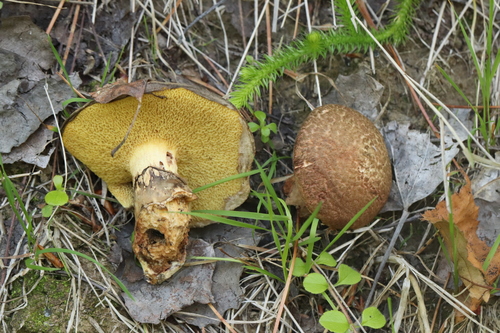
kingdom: Fungi
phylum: Basidiomycota
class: Agaricomycetes
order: Boletales
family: Suillaceae
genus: Suillus
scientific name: Suillus spraguei
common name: Painted suillus
